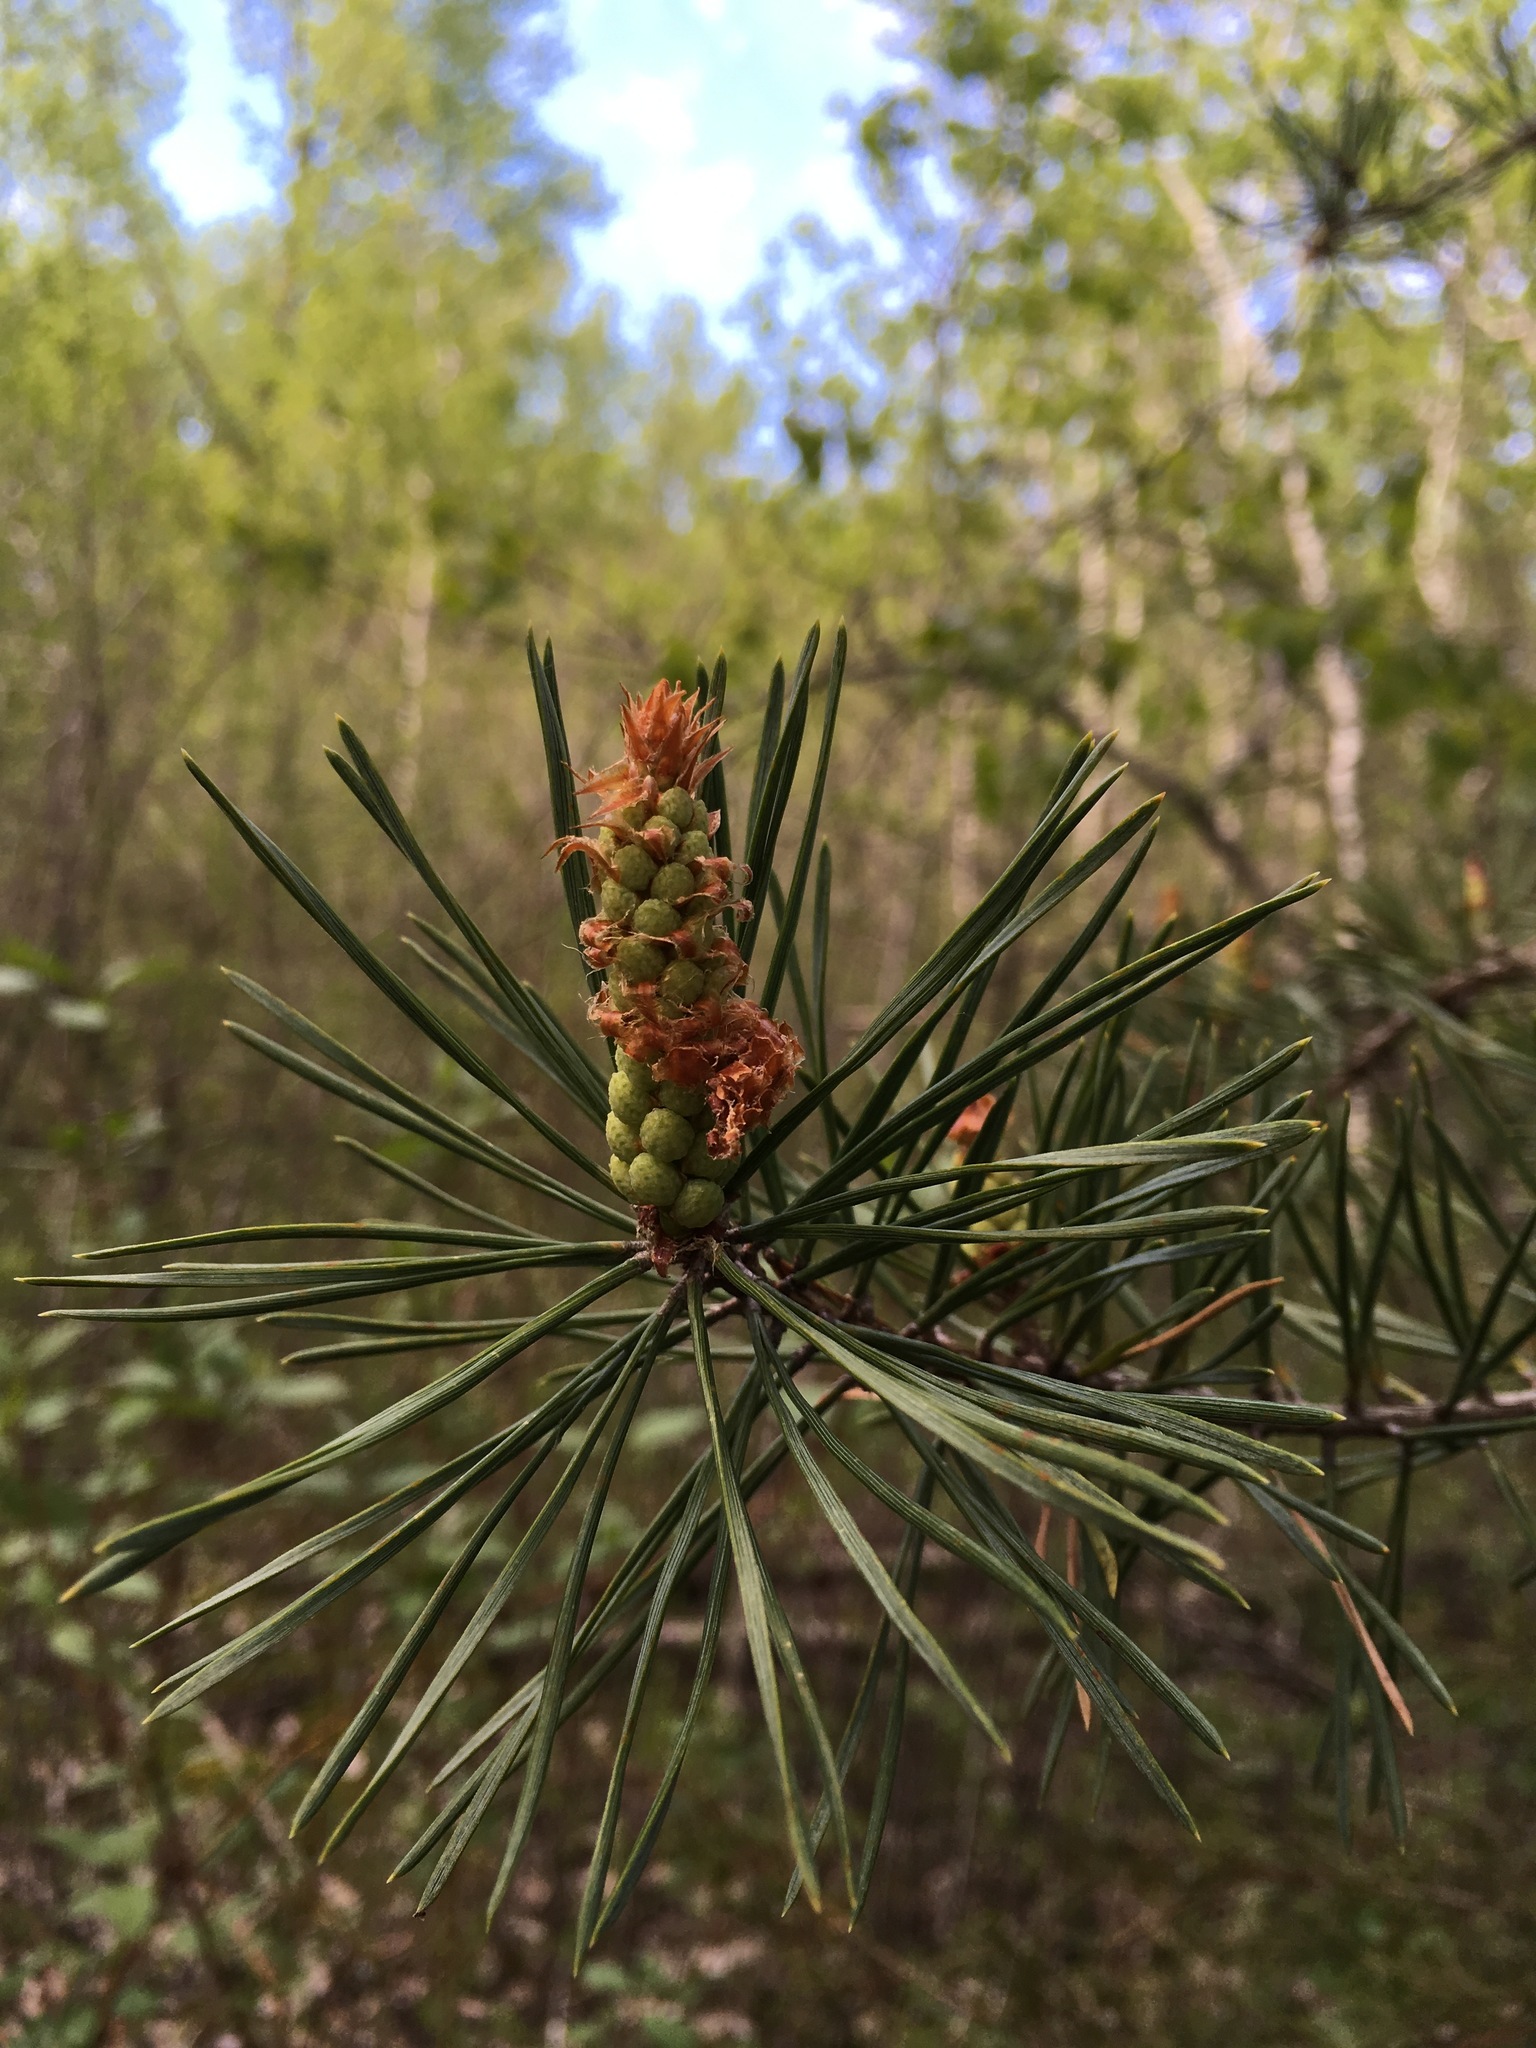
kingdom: Plantae
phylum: Tracheophyta
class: Pinopsida
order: Pinales
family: Pinaceae
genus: Pinus
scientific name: Pinus sylvestris
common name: Scots pine
